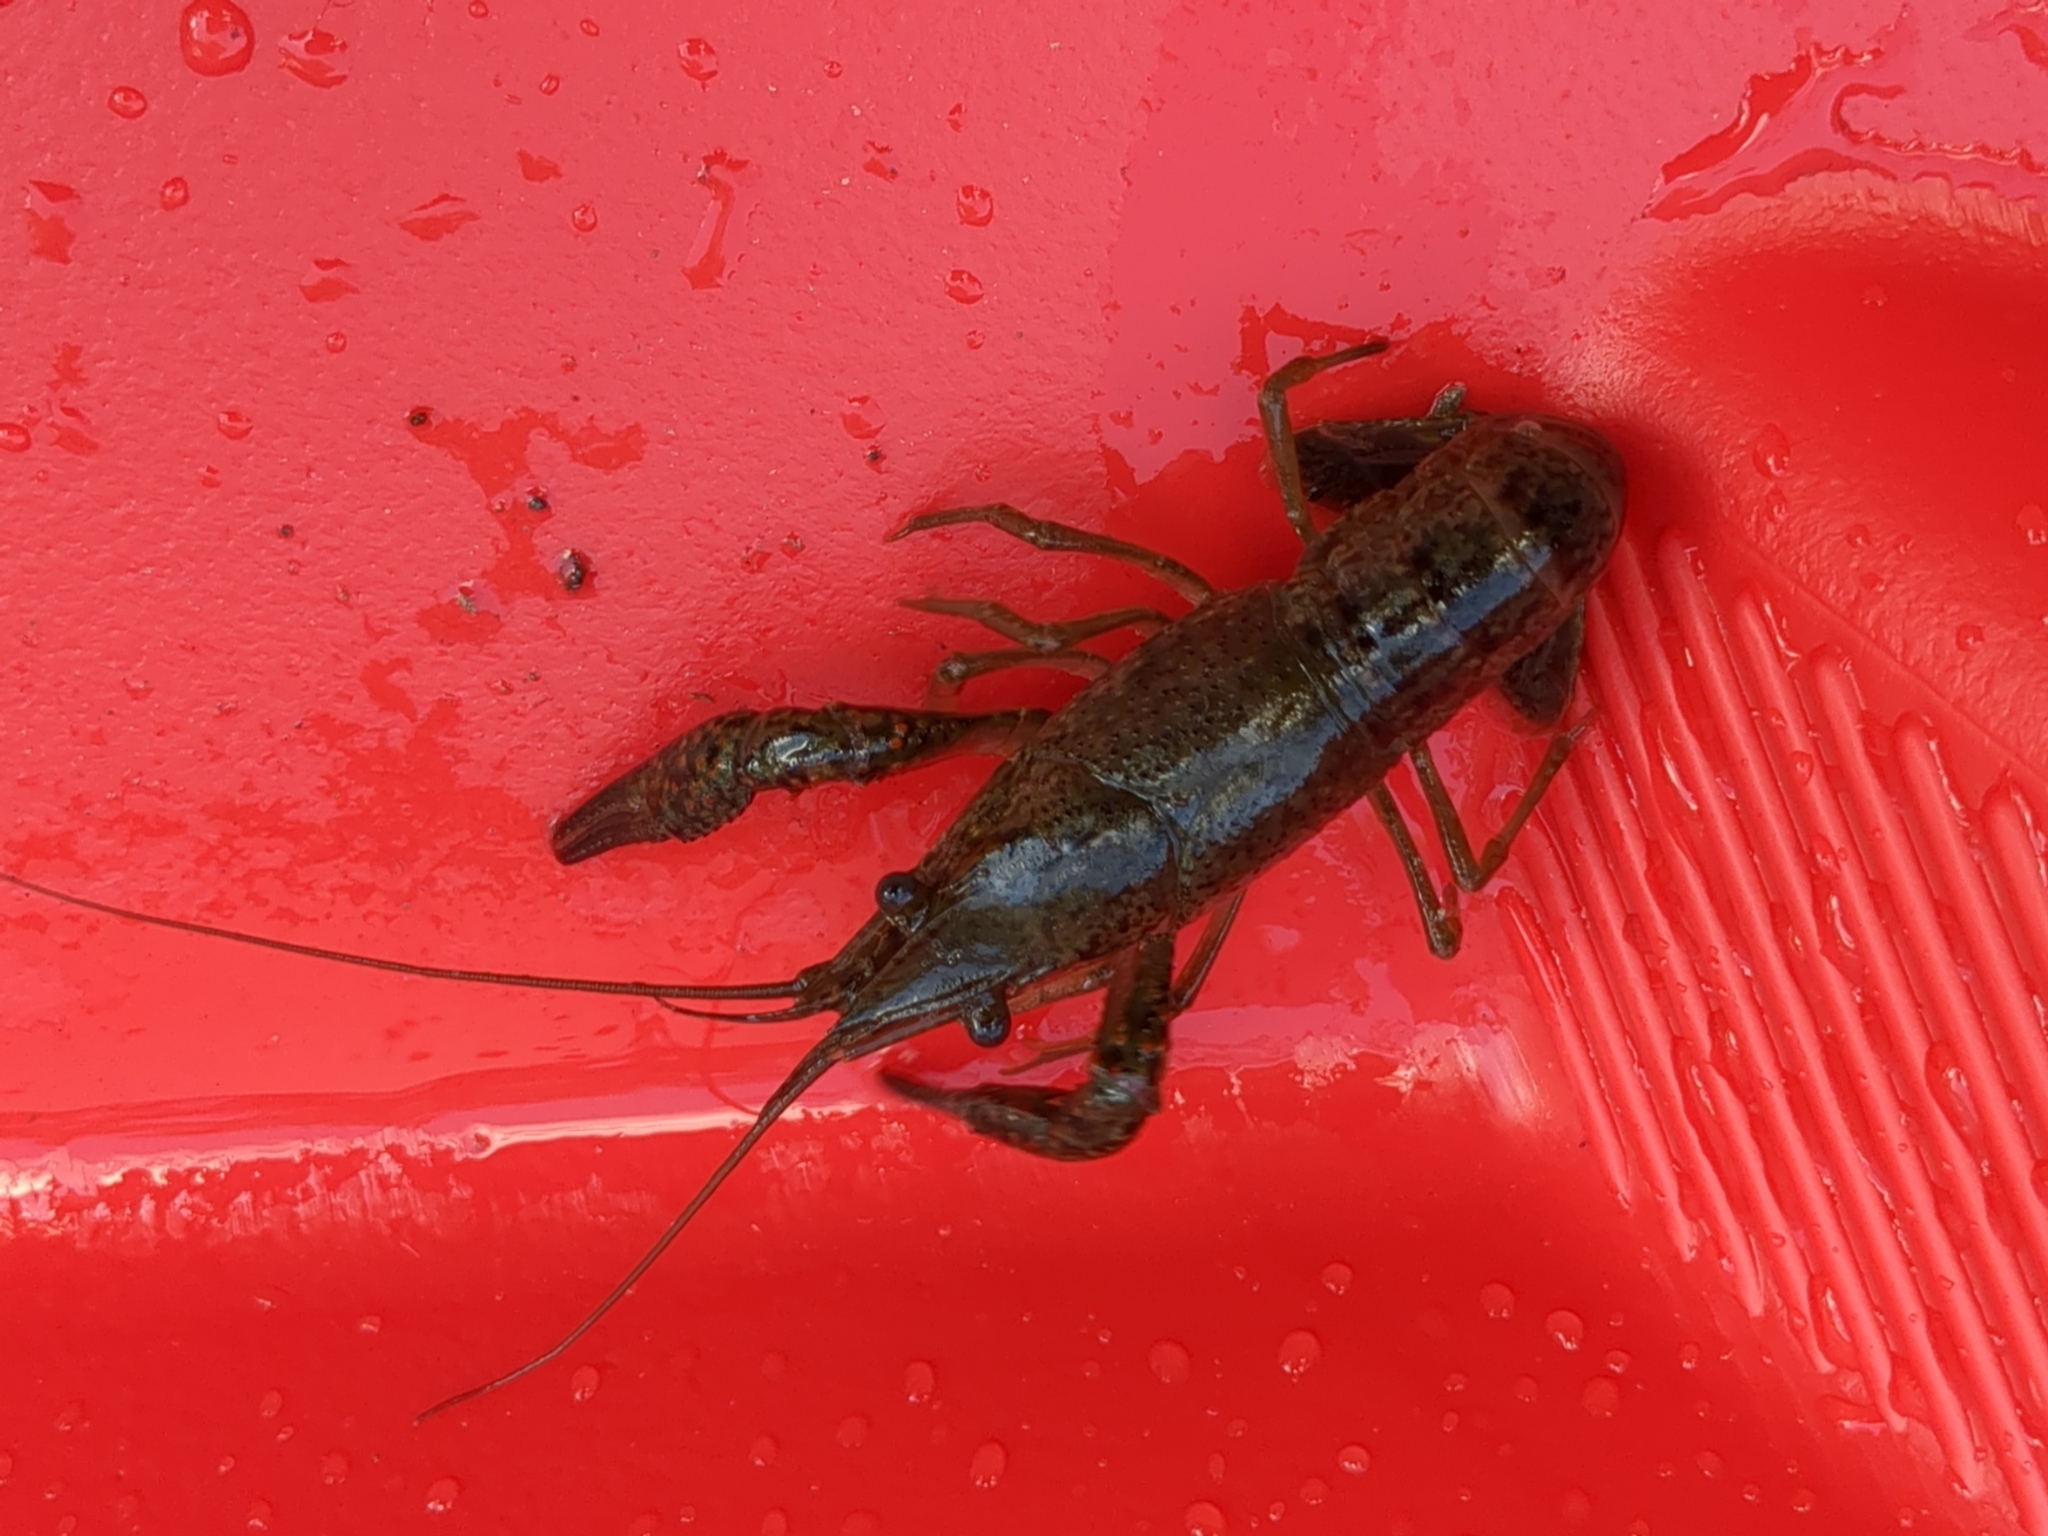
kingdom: Animalia
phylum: Arthropoda
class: Malacostraca
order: Decapoda
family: Cambaridae
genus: Procambarus
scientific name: Procambarus clarkii
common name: Red swamp crayfish
